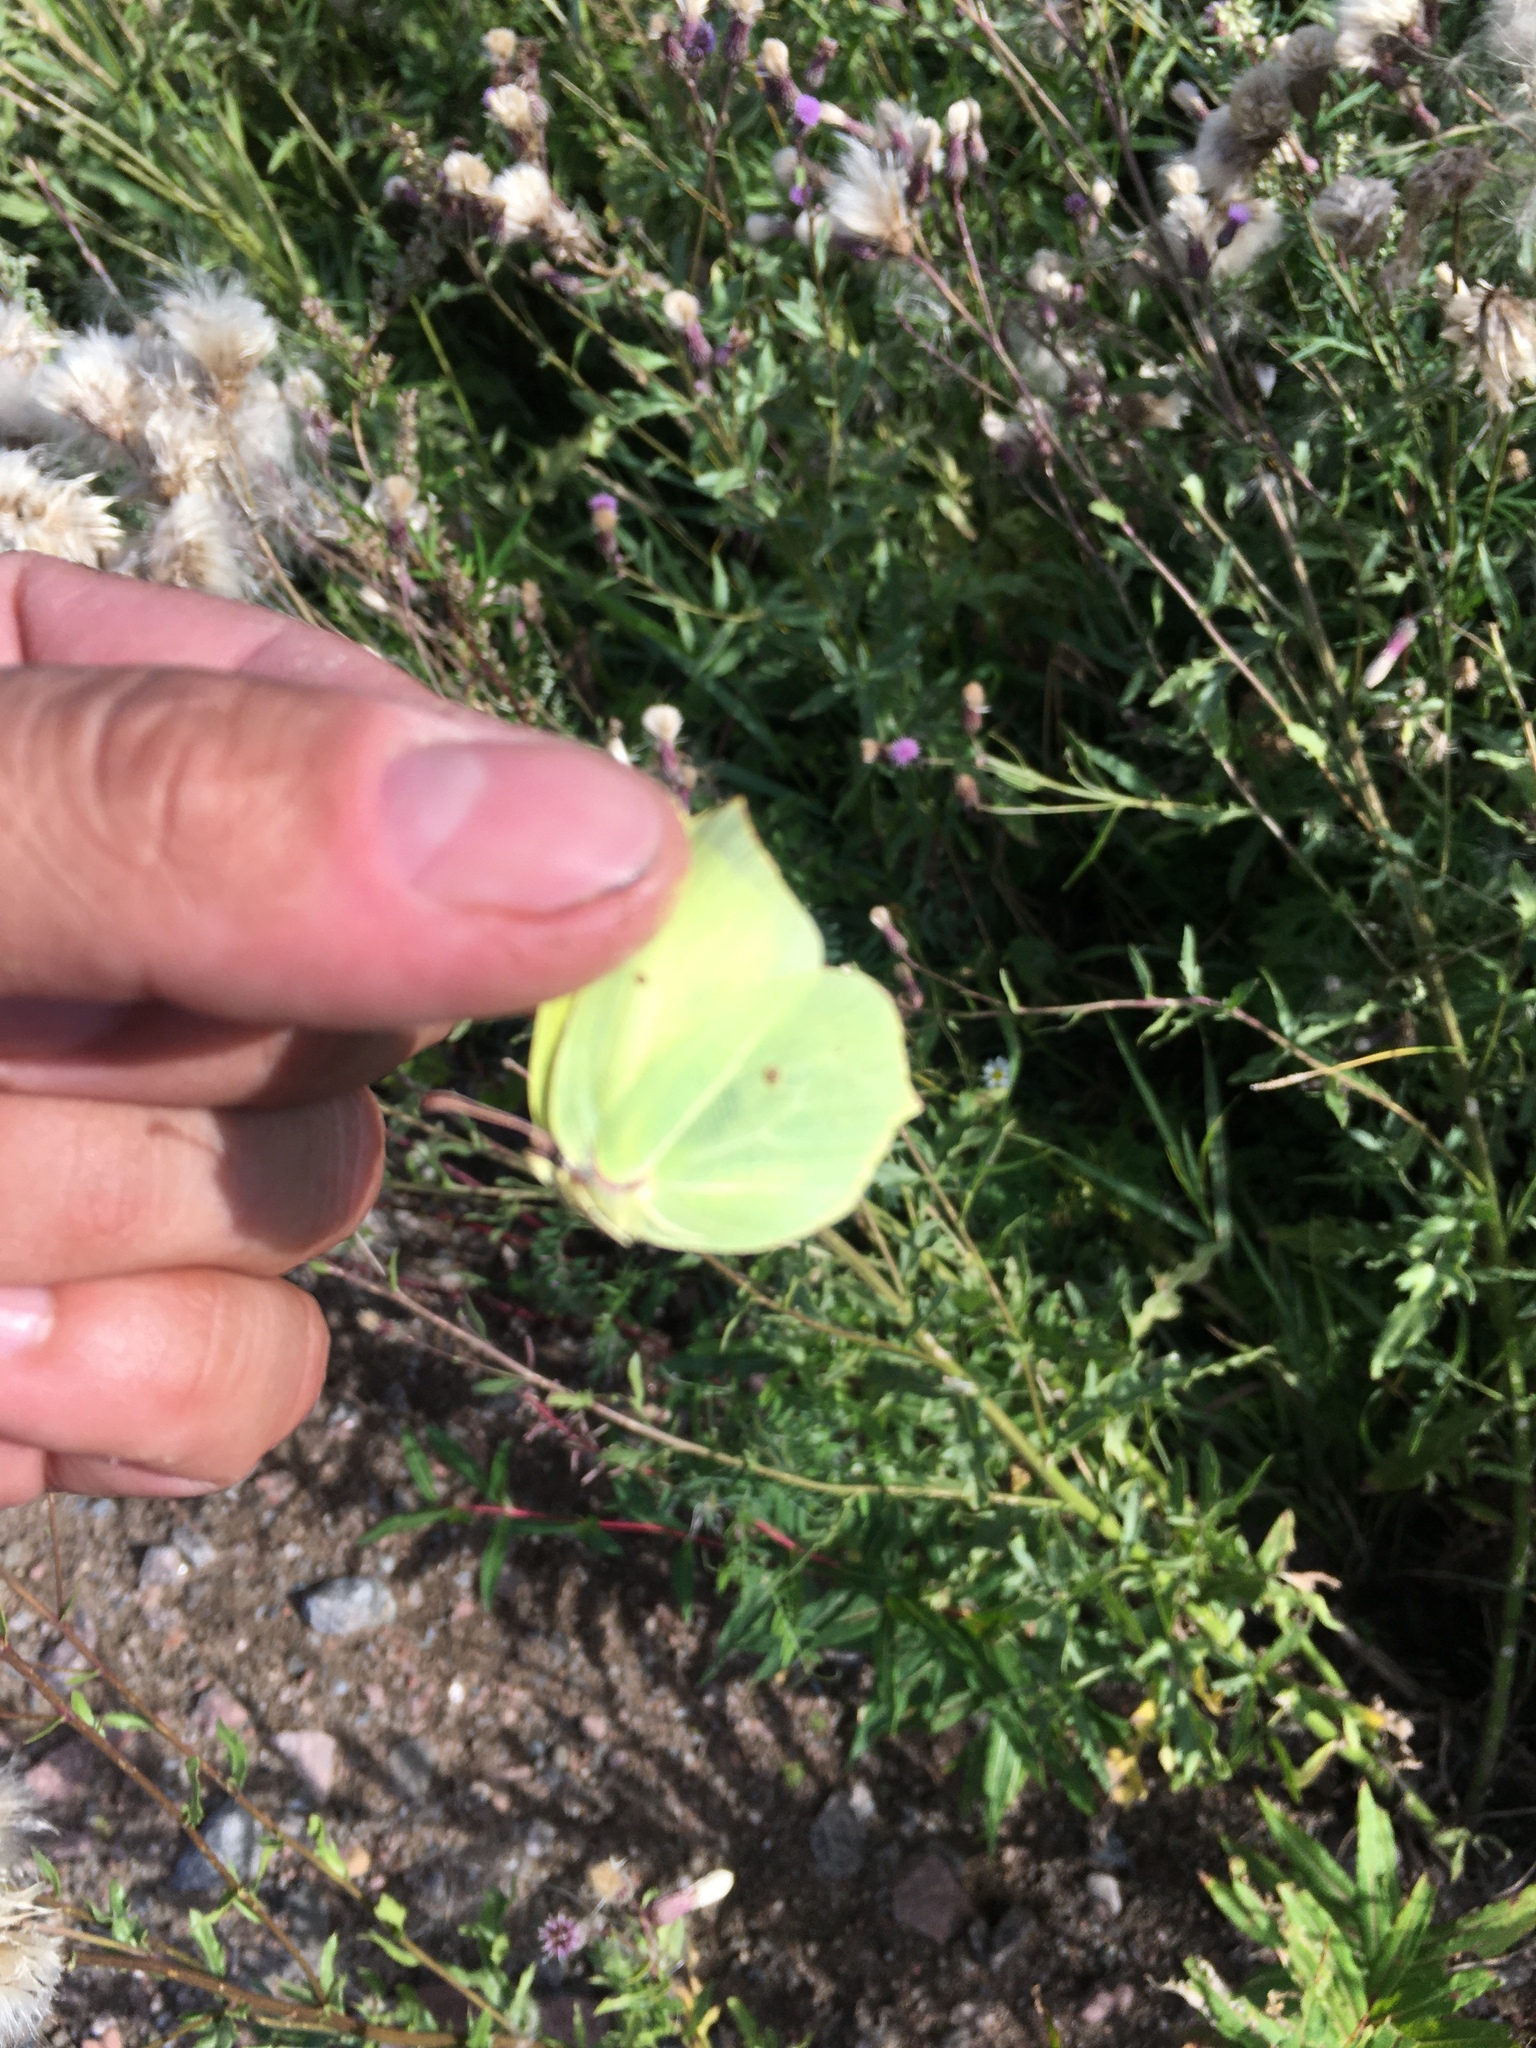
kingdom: Animalia
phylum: Arthropoda
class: Insecta
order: Lepidoptera
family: Pieridae
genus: Gonepteryx
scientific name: Gonepteryx rhamni
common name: Brimstone
